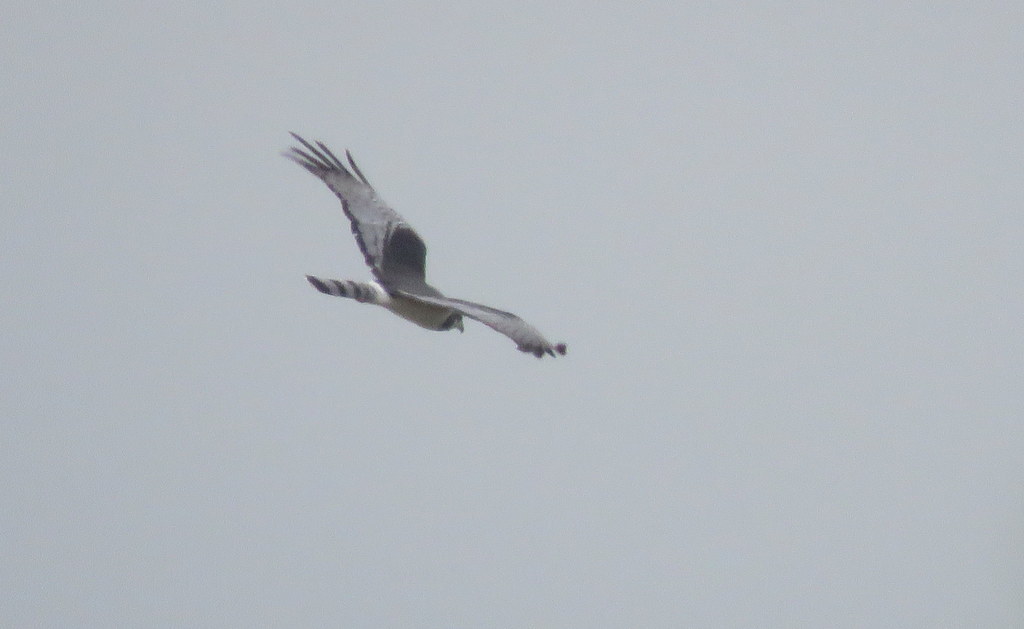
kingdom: Animalia
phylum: Chordata
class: Aves
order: Accipitriformes
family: Accipitridae
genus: Circus
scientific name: Circus buffoni
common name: Long-winged harrier
